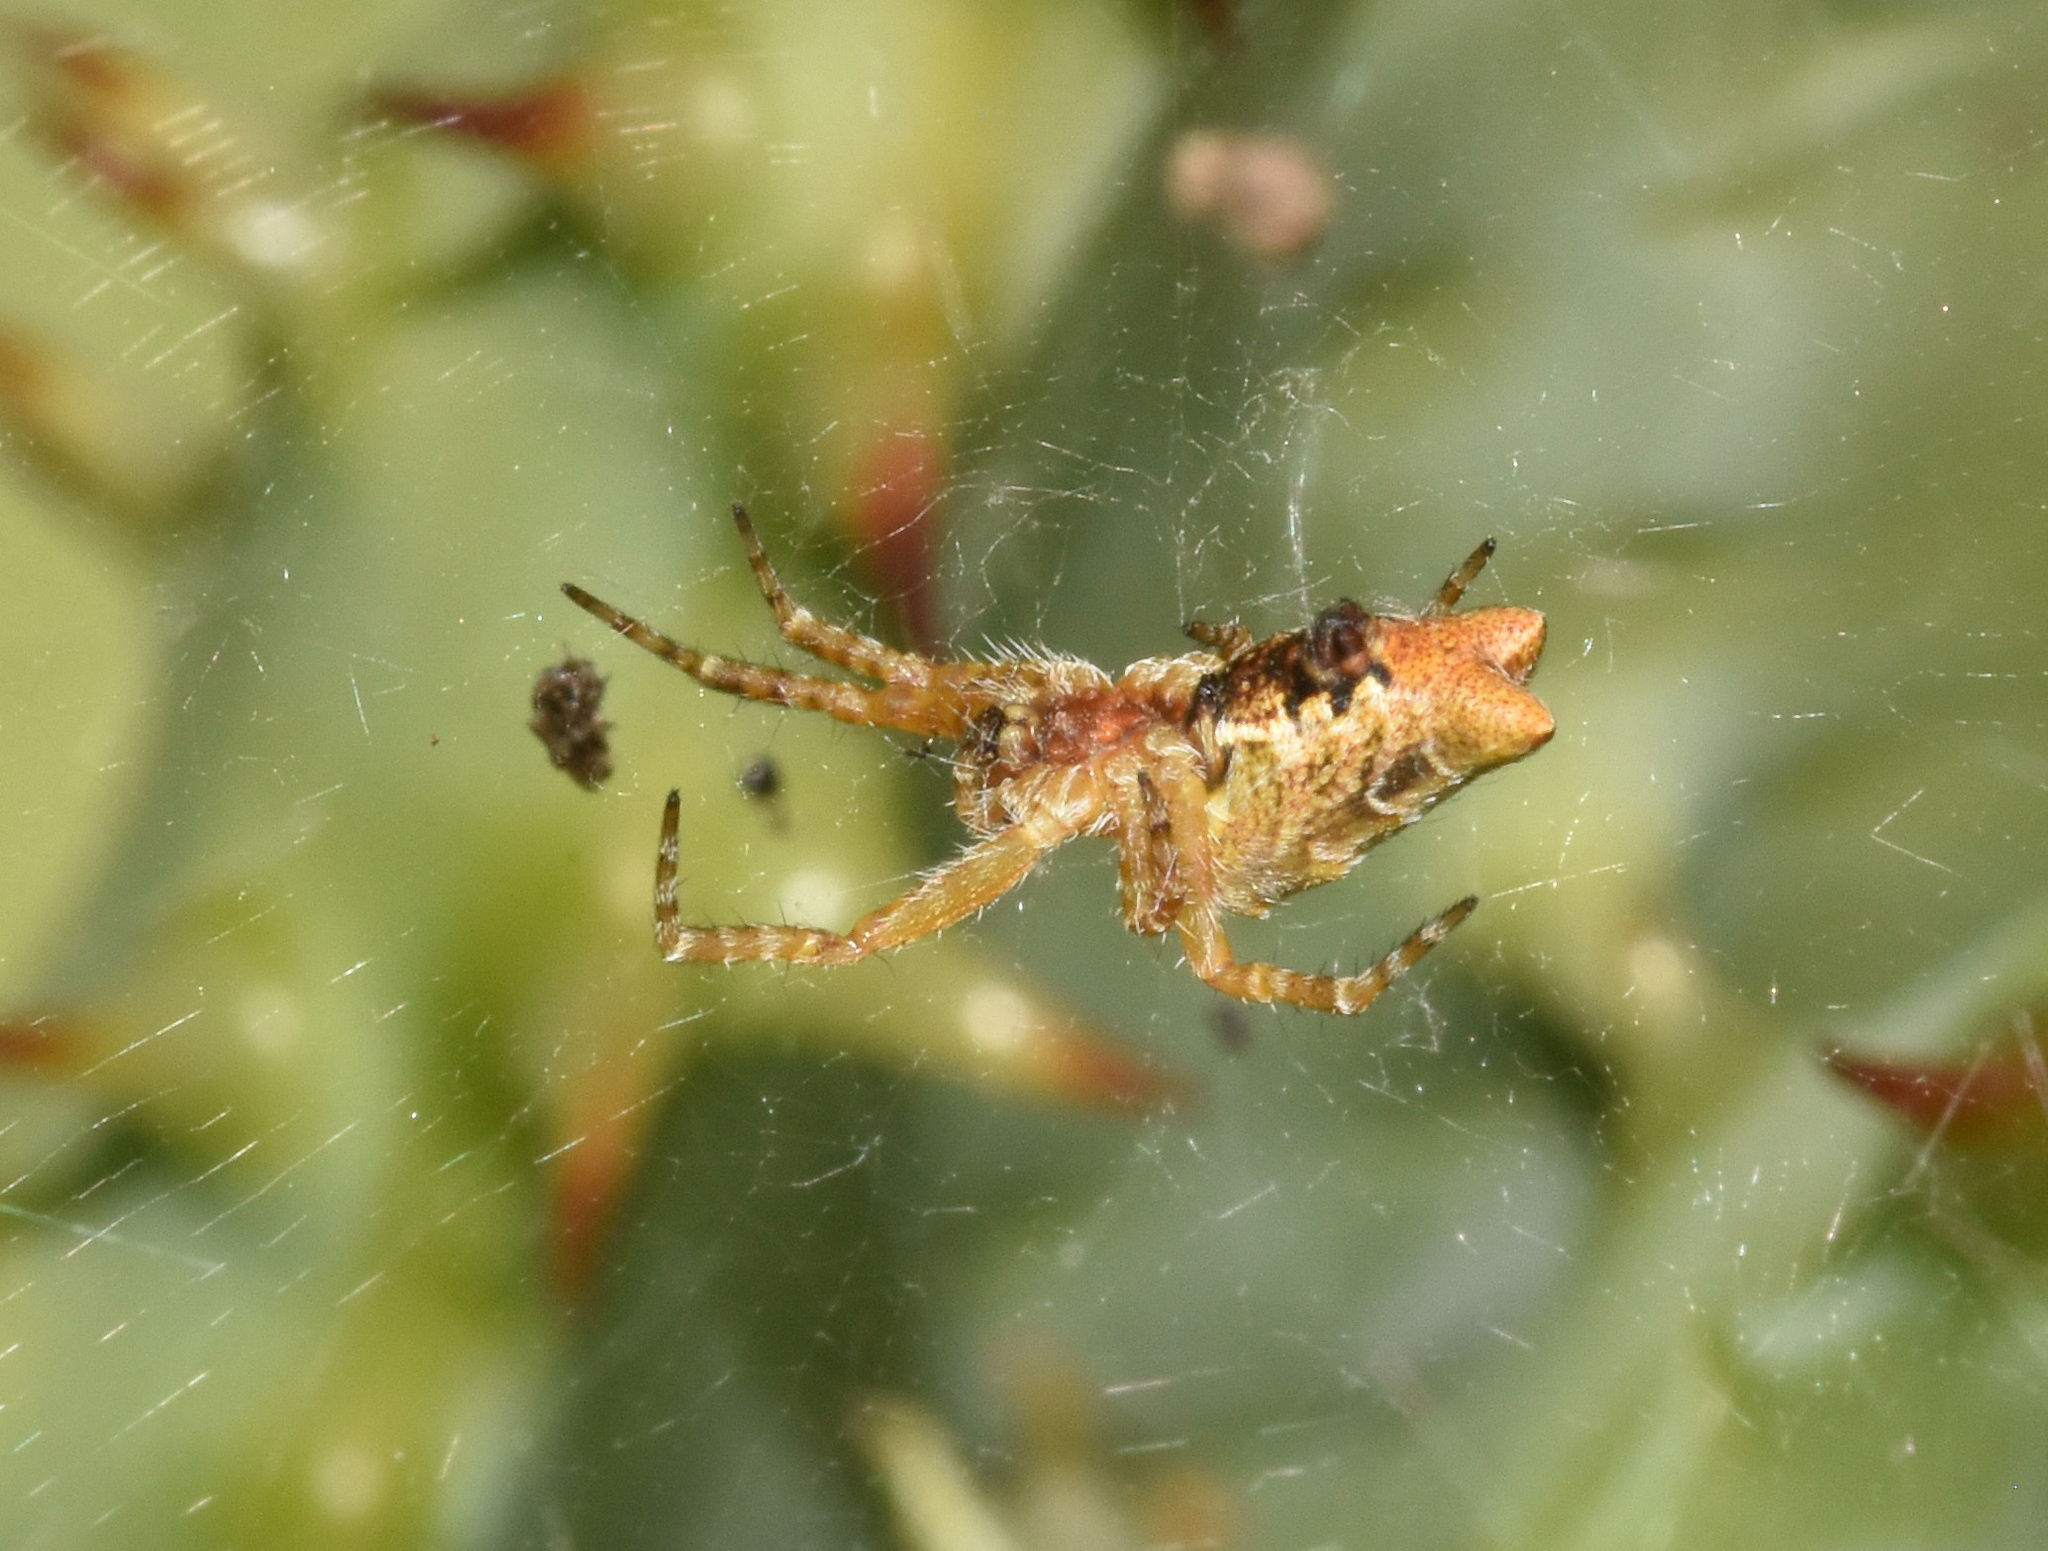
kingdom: Animalia
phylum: Arthropoda
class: Arachnida
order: Araneae
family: Araneidae
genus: Cyrtophora
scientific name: Cyrtophora citricola
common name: Orb weavers
